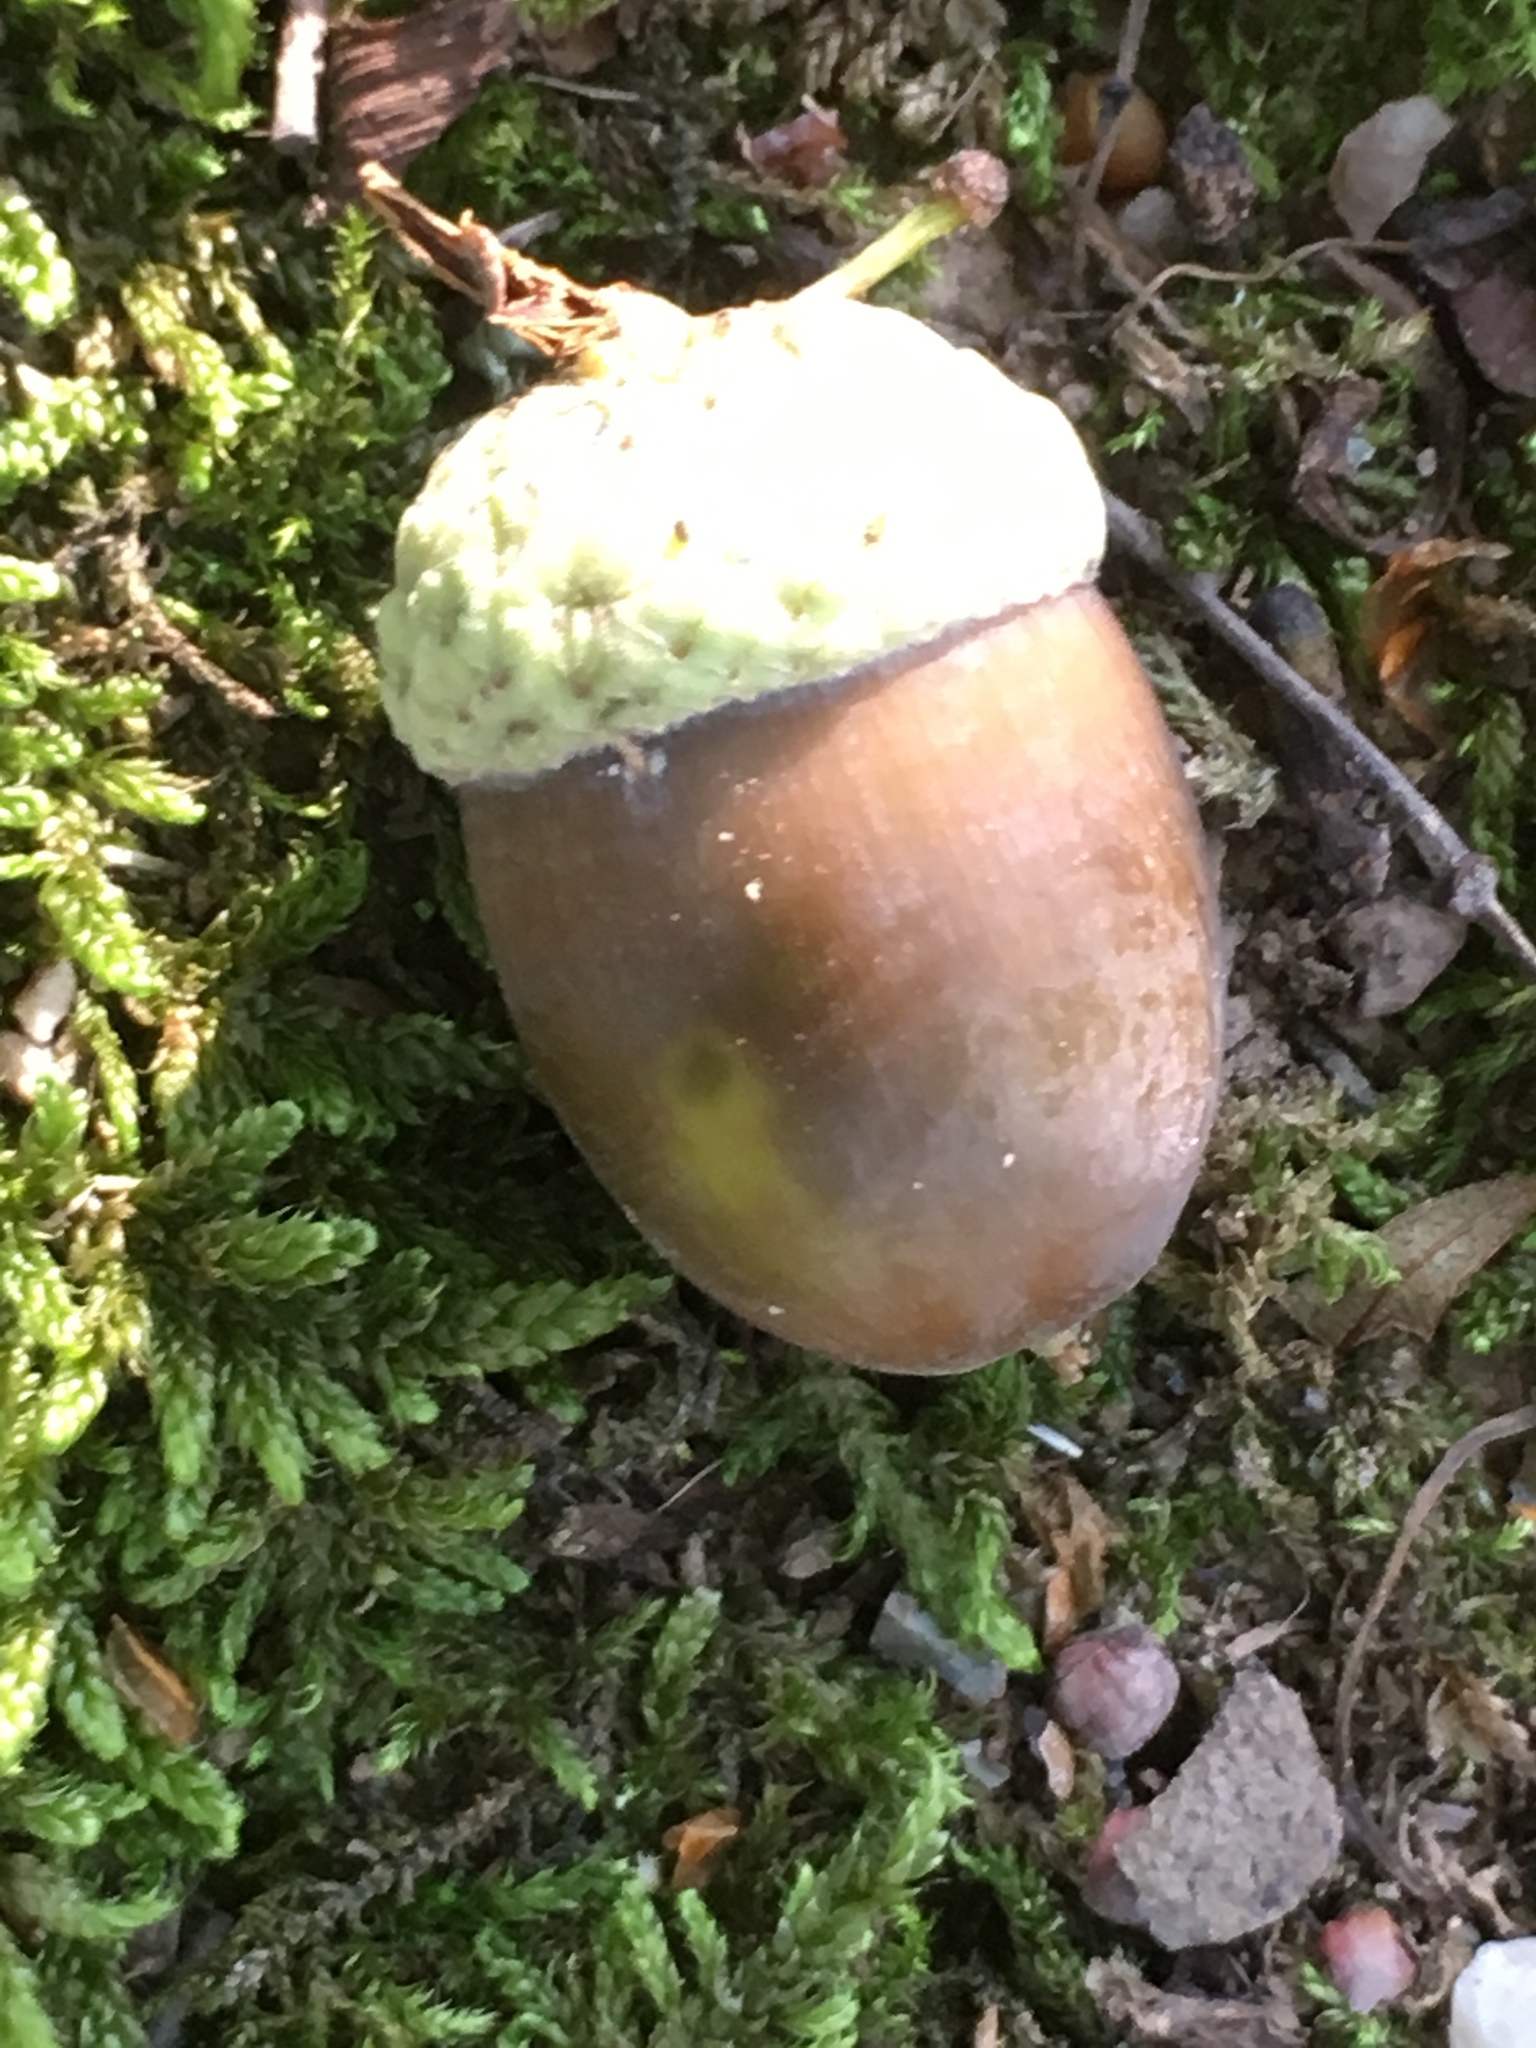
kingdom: Plantae
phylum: Tracheophyta
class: Magnoliopsida
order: Fagales
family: Fagaceae
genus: Quercus
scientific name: Quercus robur
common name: Pedunculate oak
